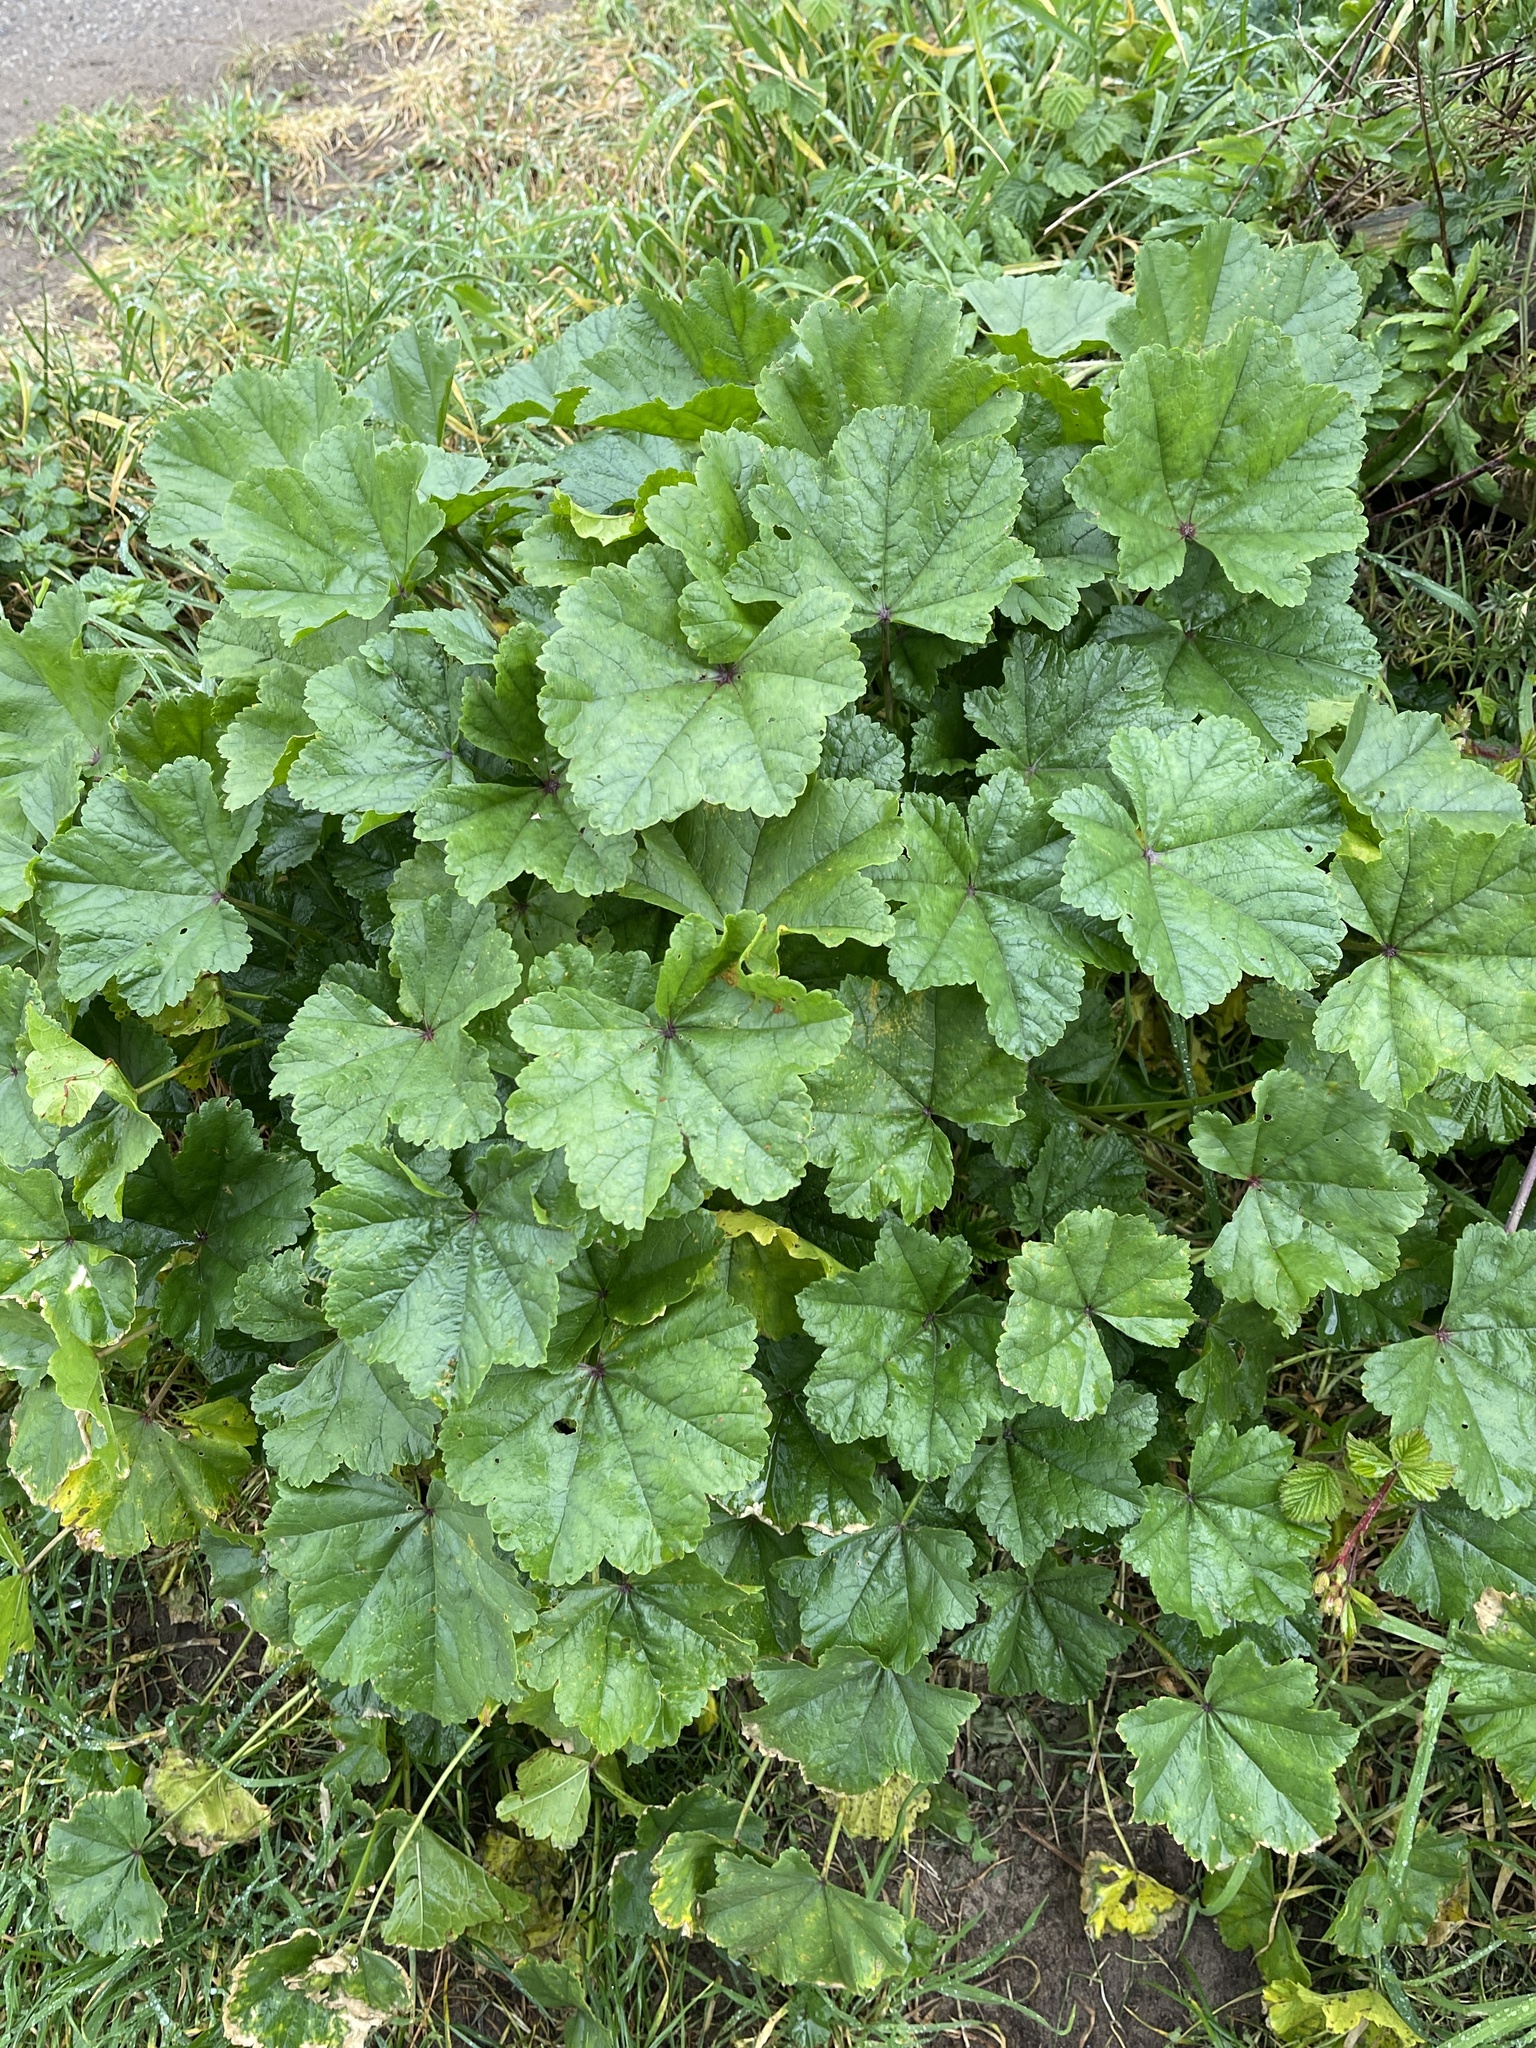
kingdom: Plantae
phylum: Tracheophyta
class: Magnoliopsida
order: Malvales
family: Malvaceae
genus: Malva
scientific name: Malva sylvestris
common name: Common mallow
